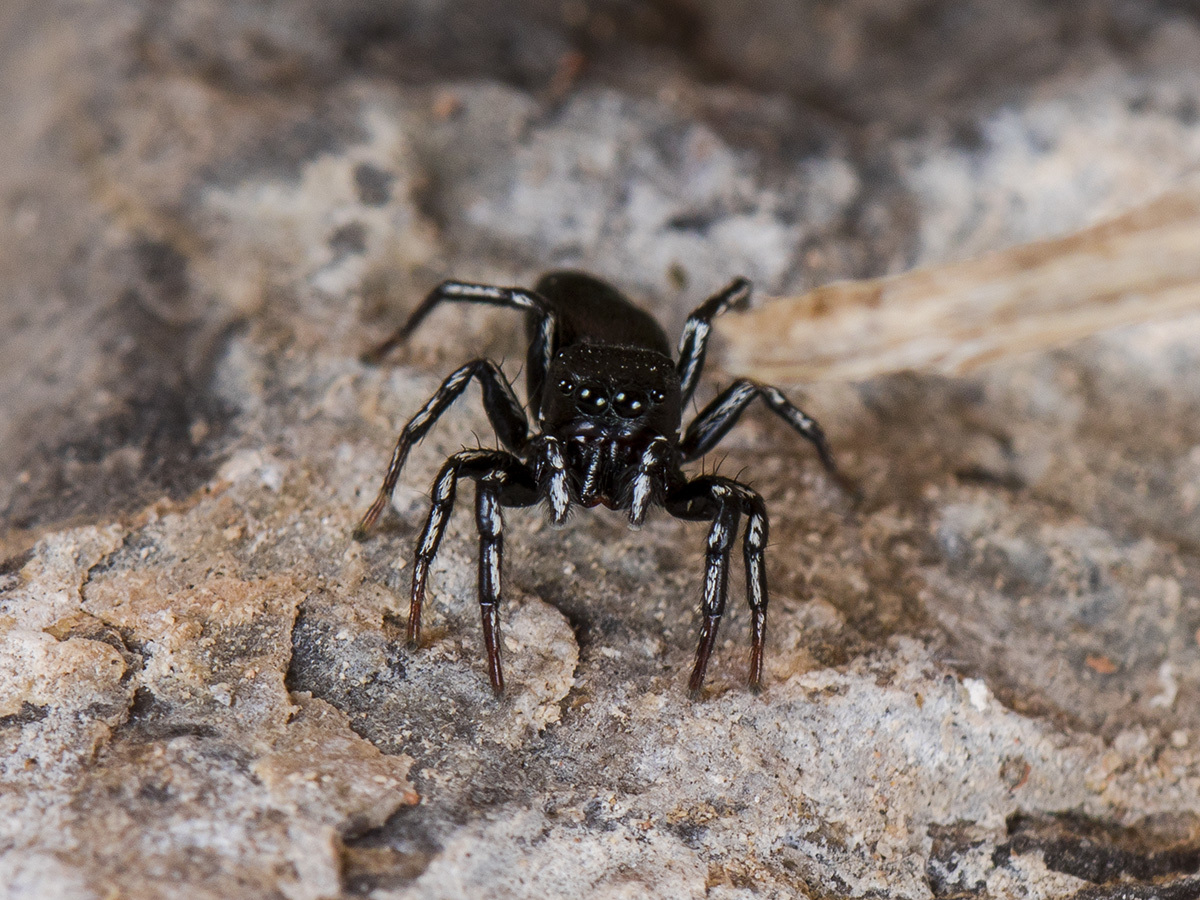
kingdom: Animalia
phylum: Arthropoda
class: Arachnida
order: Araneae
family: Salticidae
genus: Heliophanus
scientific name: Heliophanus potanini
